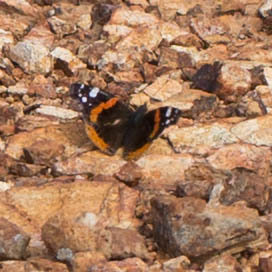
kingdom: Animalia
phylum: Arthropoda
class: Insecta
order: Lepidoptera
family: Nymphalidae
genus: Vanessa
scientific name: Vanessa atalanta
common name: Red admiral
